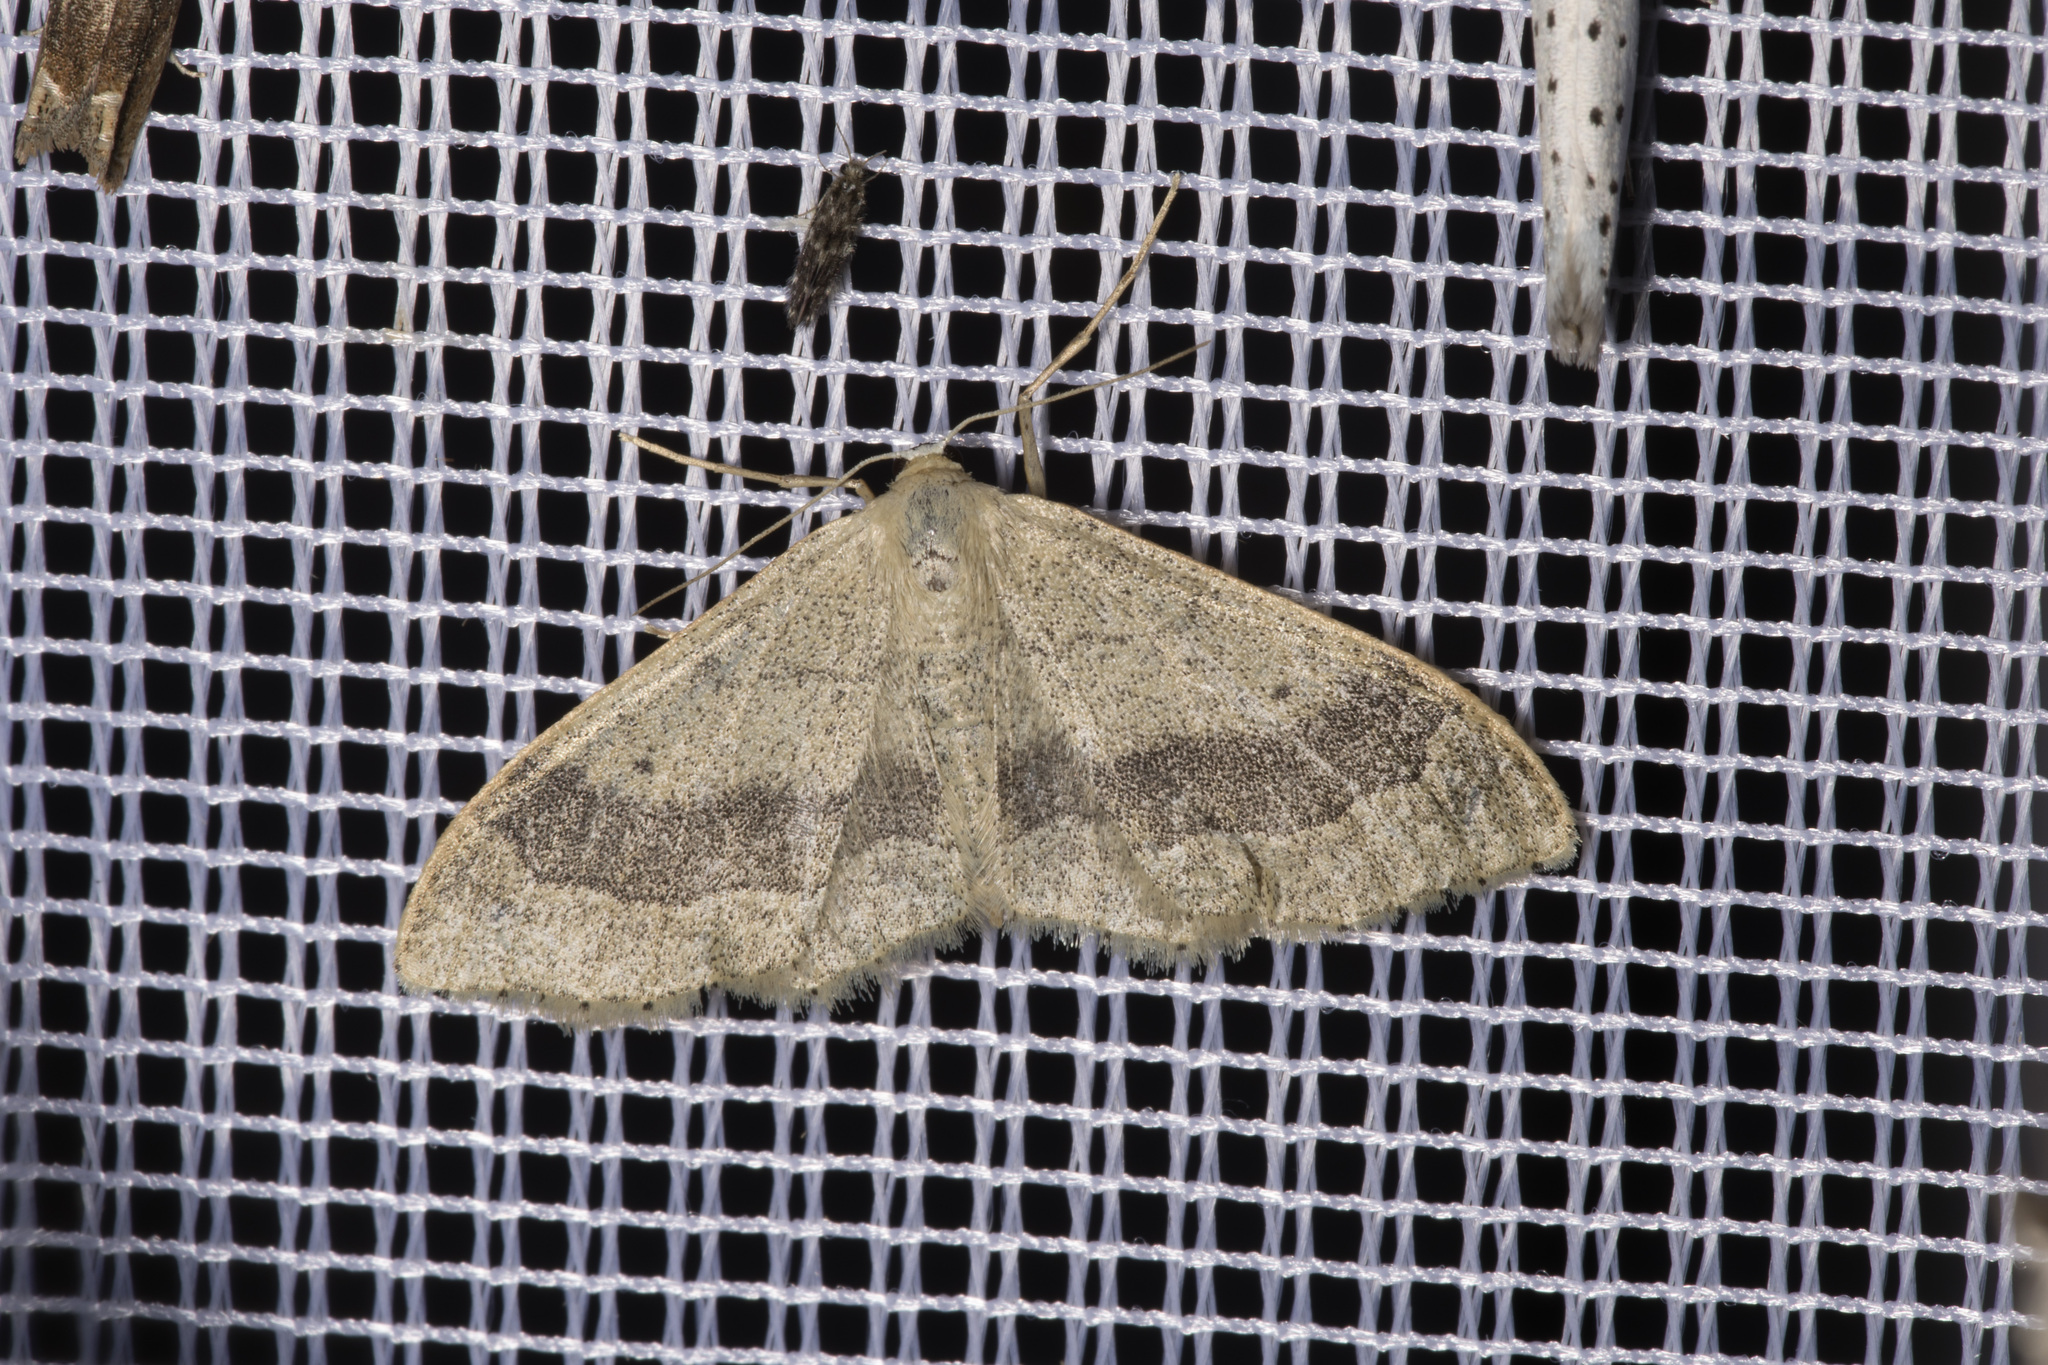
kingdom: Animalia
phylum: Arthropoda
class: Insecta
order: Lepidoptera
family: Geometridae
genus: Idaea
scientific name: Idaea aversata
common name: Riband wave
